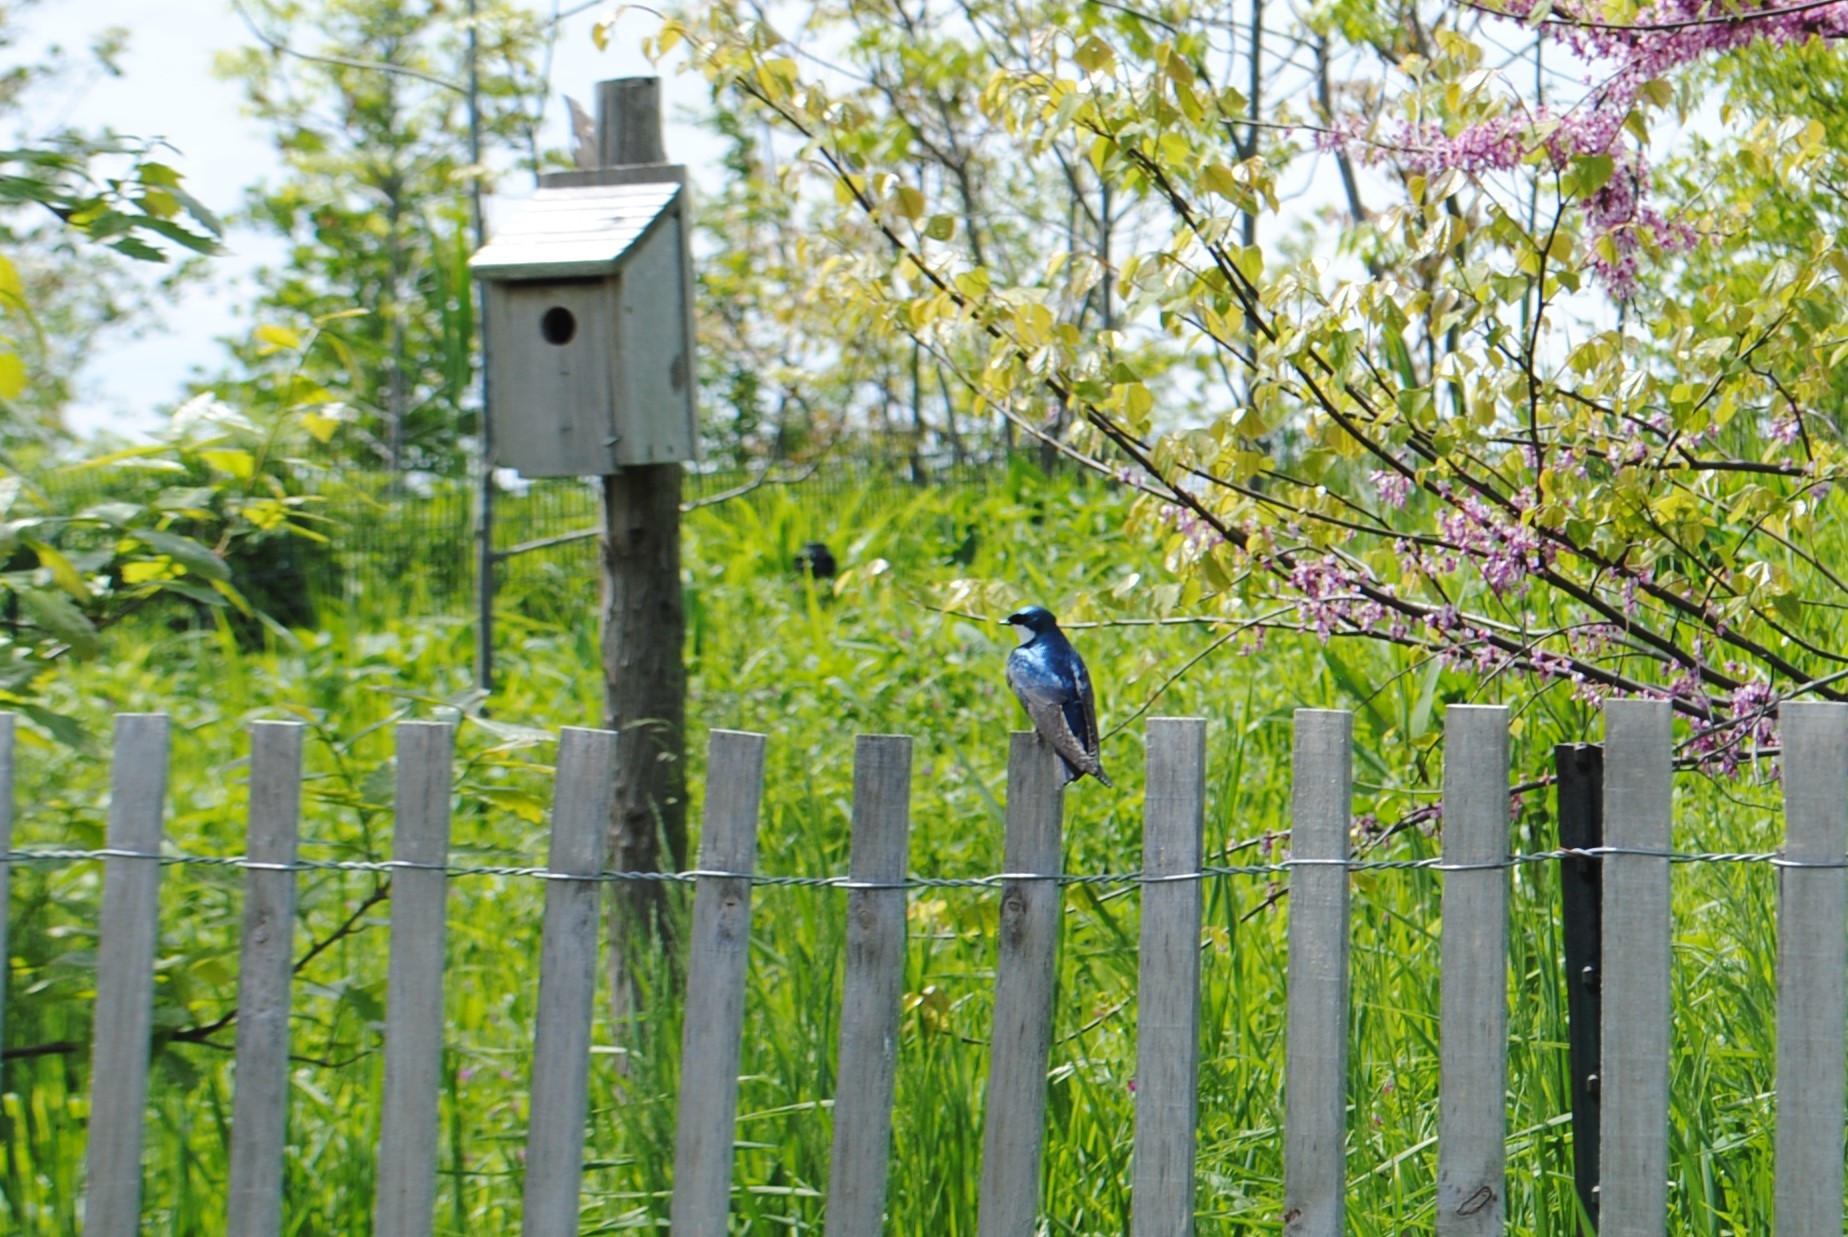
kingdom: Animalia
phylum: Chordata
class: Aves
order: Passeriformes
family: Hirundinidae
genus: Tachycineta
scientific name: Tachycineta bicolor
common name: Tree swallow
